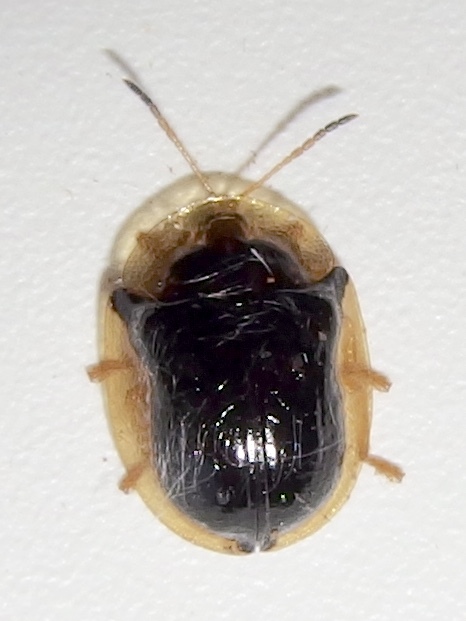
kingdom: Animalia
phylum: Arthropoda
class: Insecta
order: Coleoptera
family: Chrysomelidae
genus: Deloyala
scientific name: Deloyala lecontei
